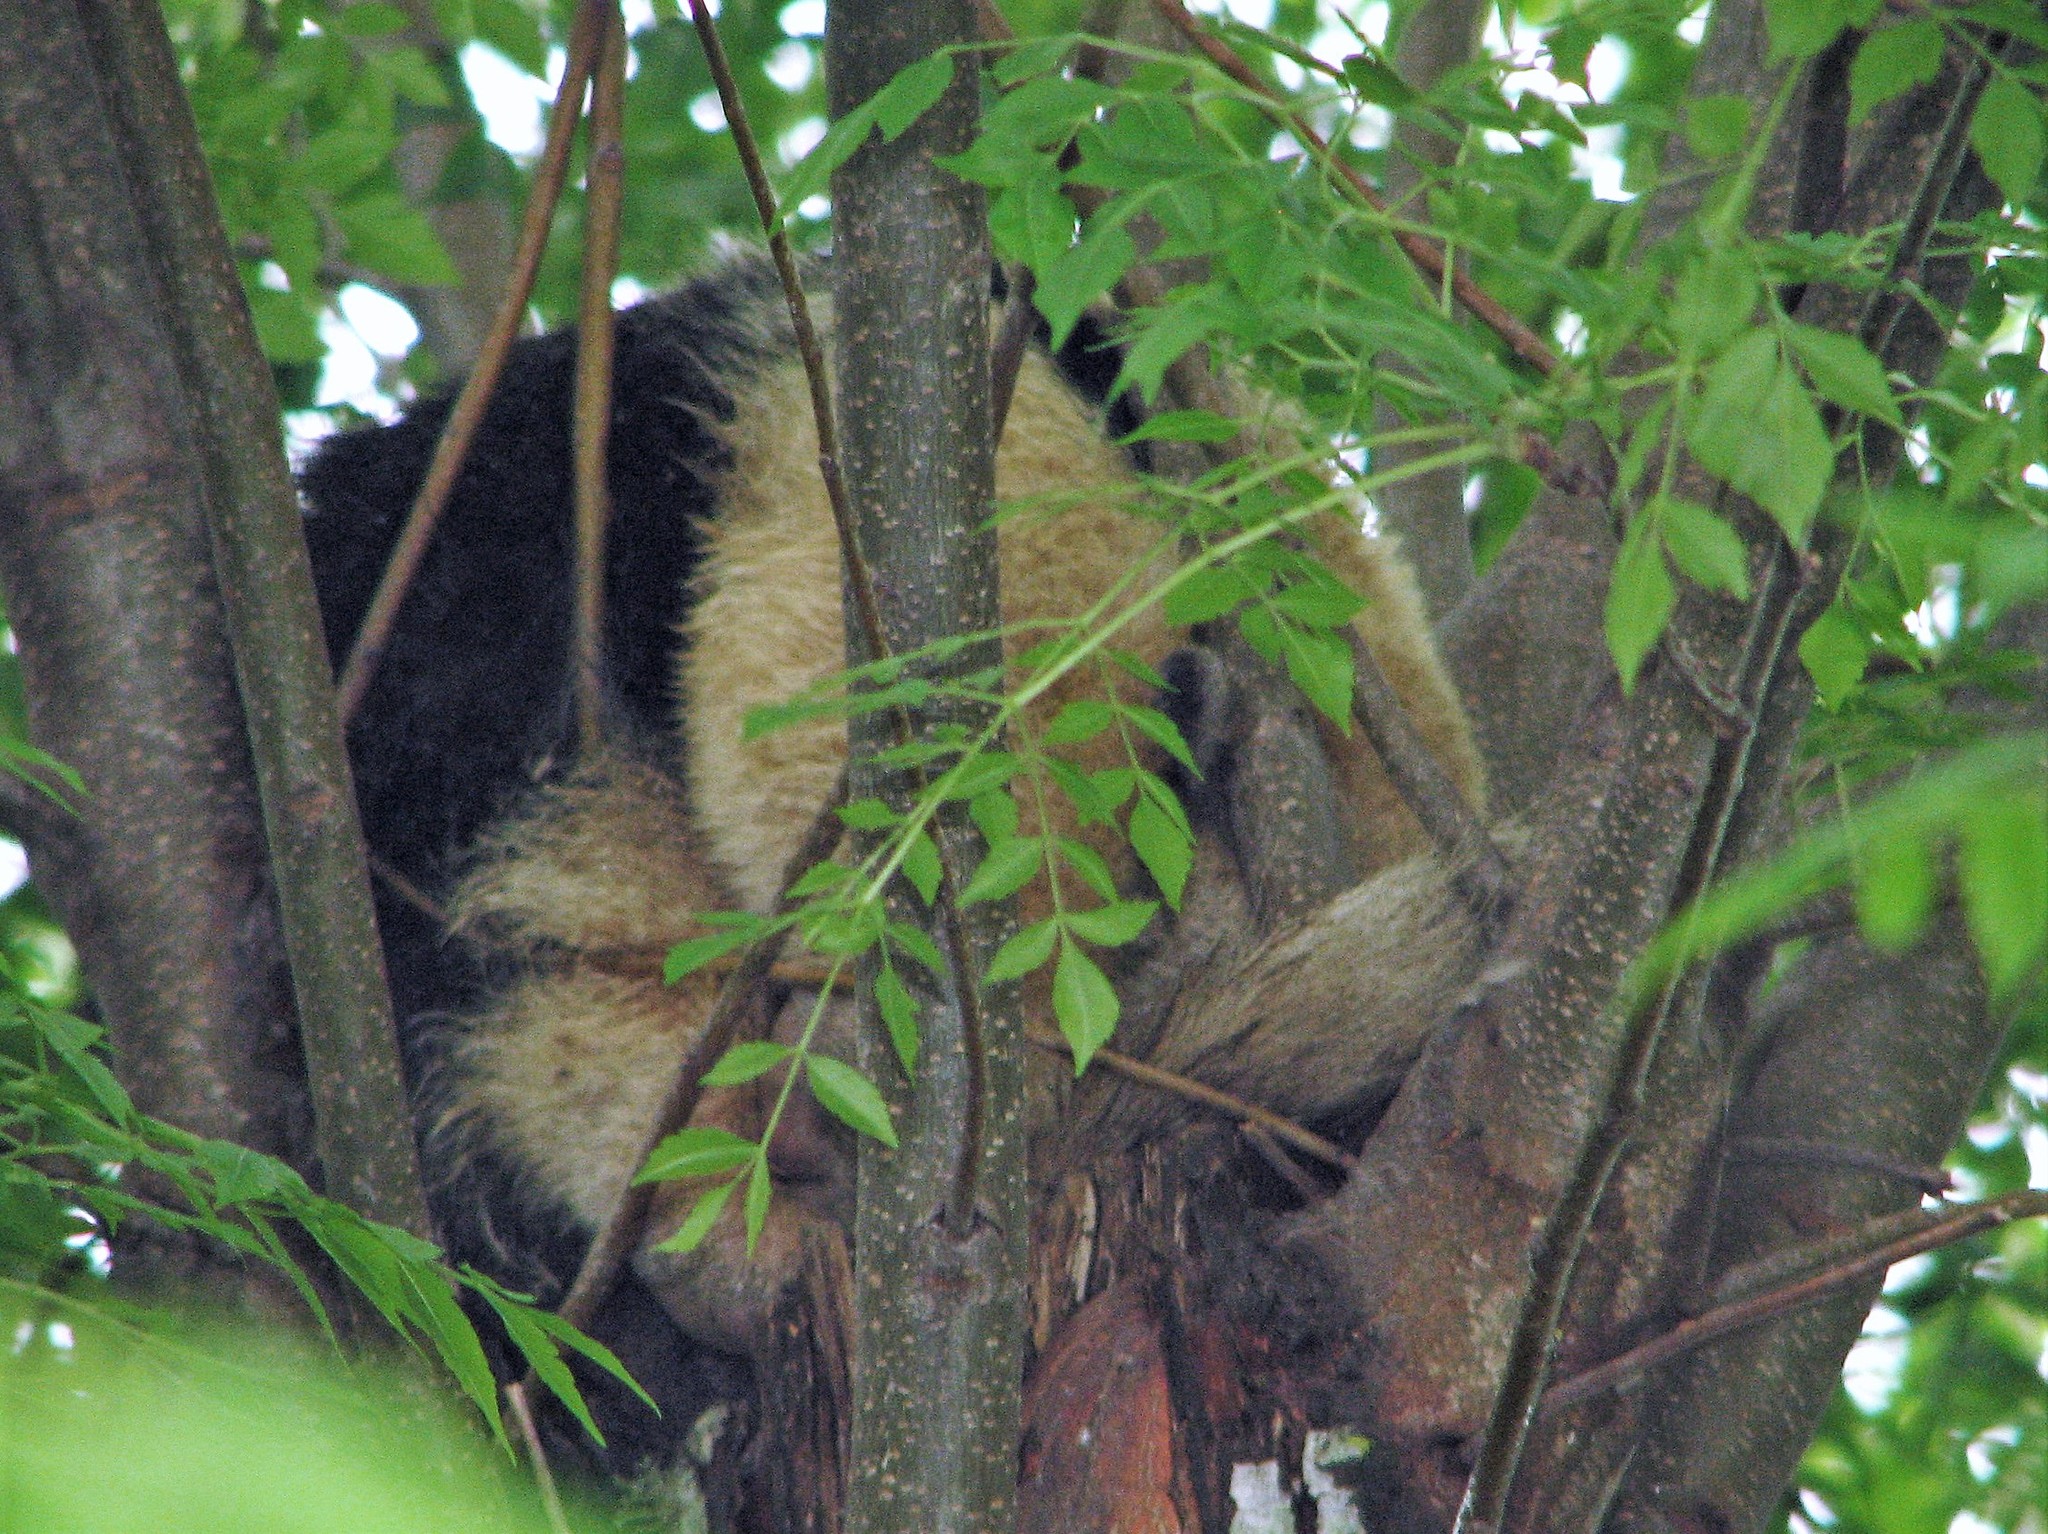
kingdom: Animalia
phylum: Chordata
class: Mammalia
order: Pilosa
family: Myrmecophagidae
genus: Tamandua
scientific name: Tamandua tetradactyla
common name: Southern tamandua
